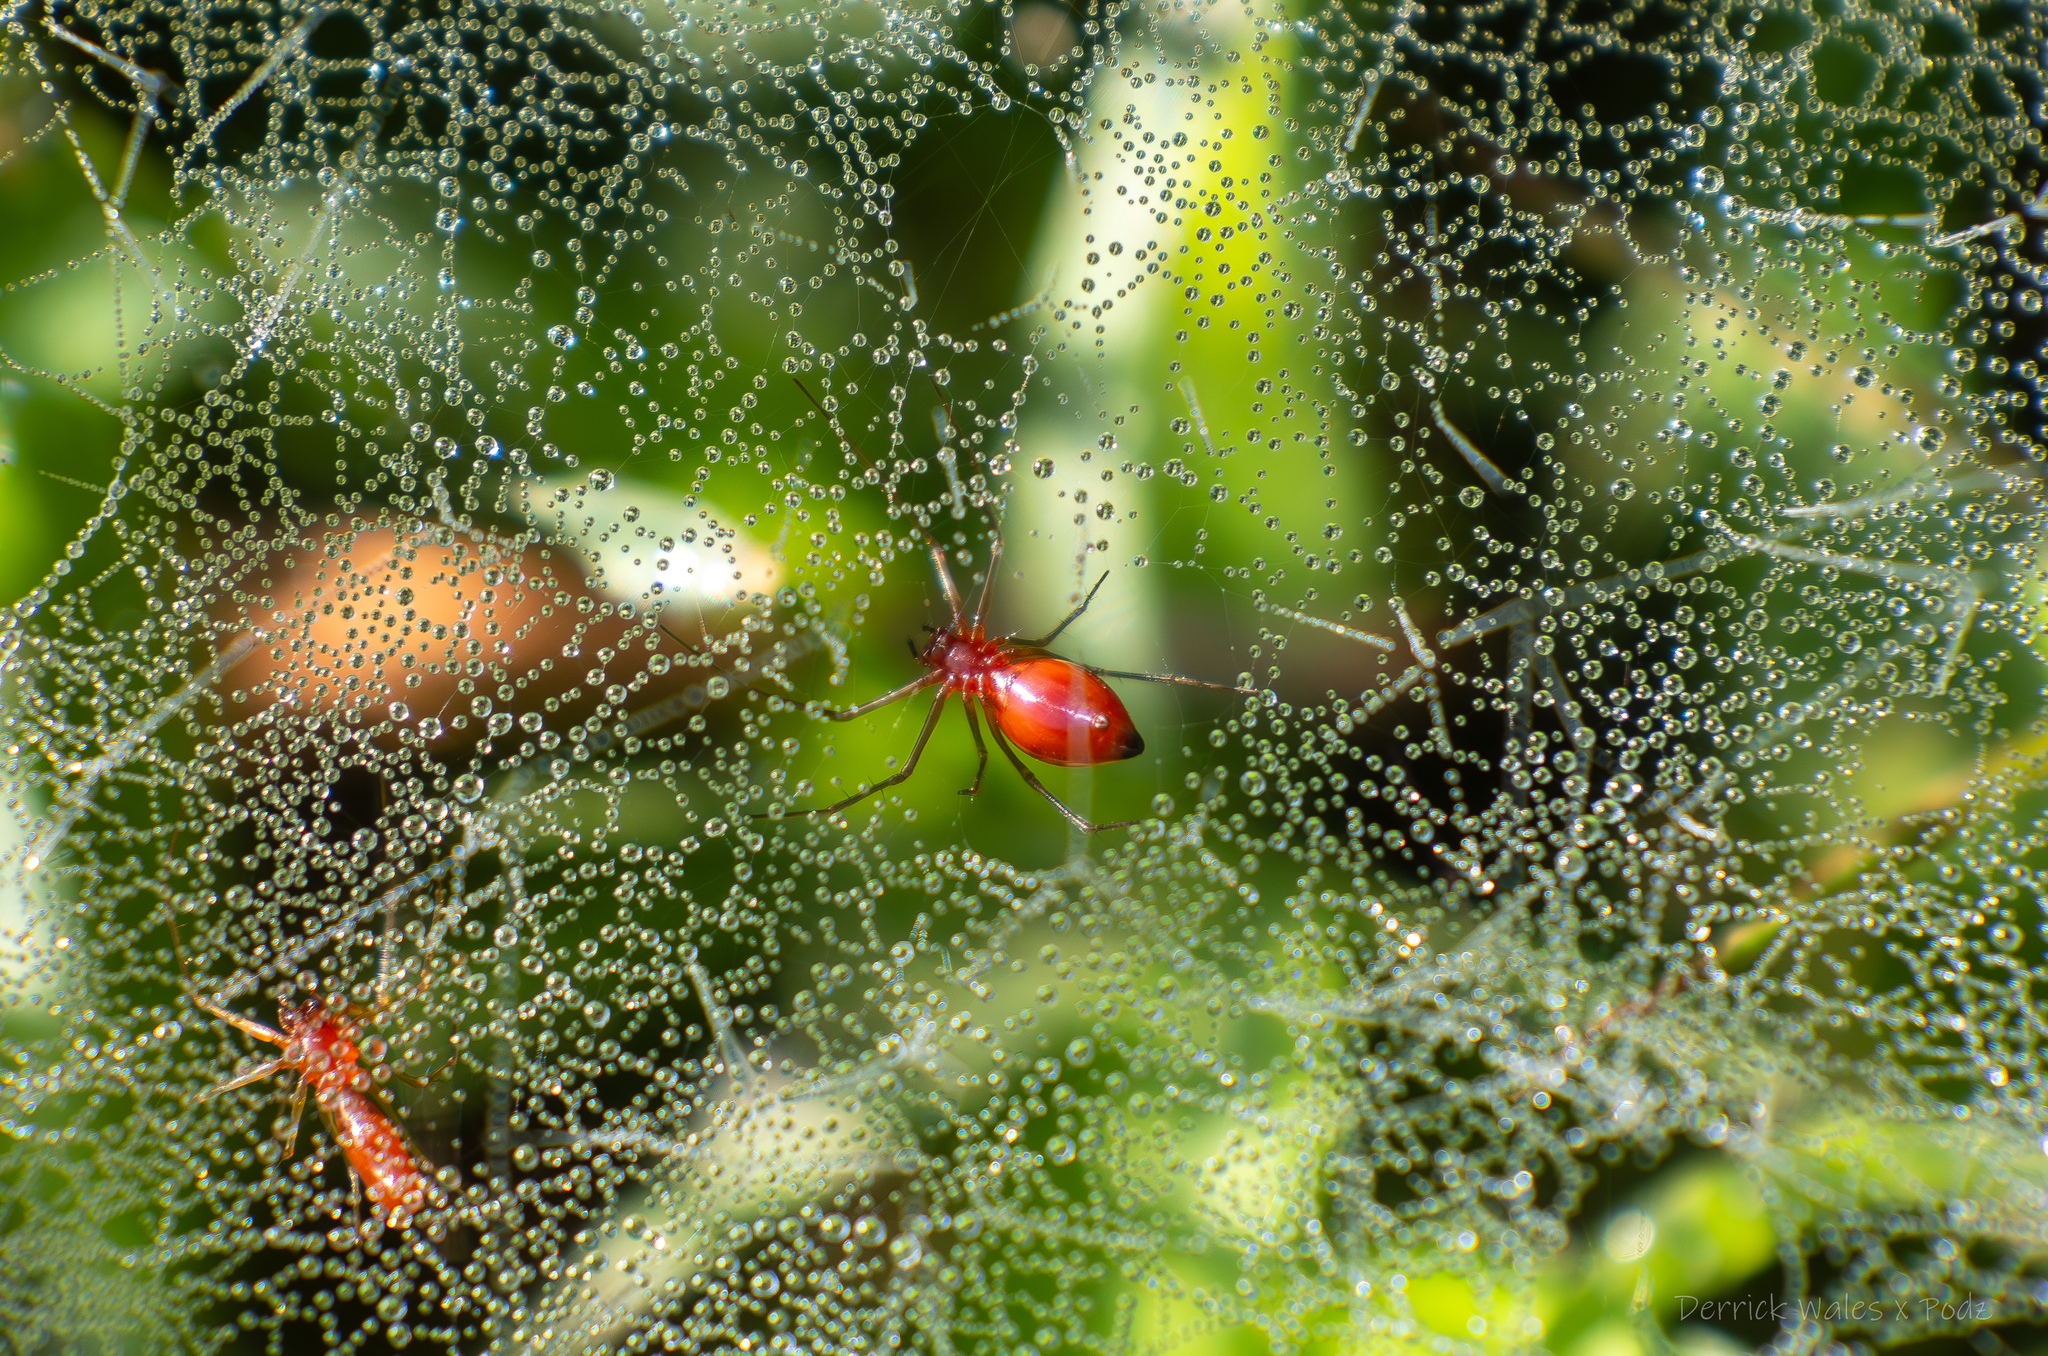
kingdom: Animalia
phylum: Arthropoda
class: Arachnida
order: Araneae
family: Linyphiidae
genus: Florinda
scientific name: Florinda coccinea
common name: Black-tailed red sheetweaver
